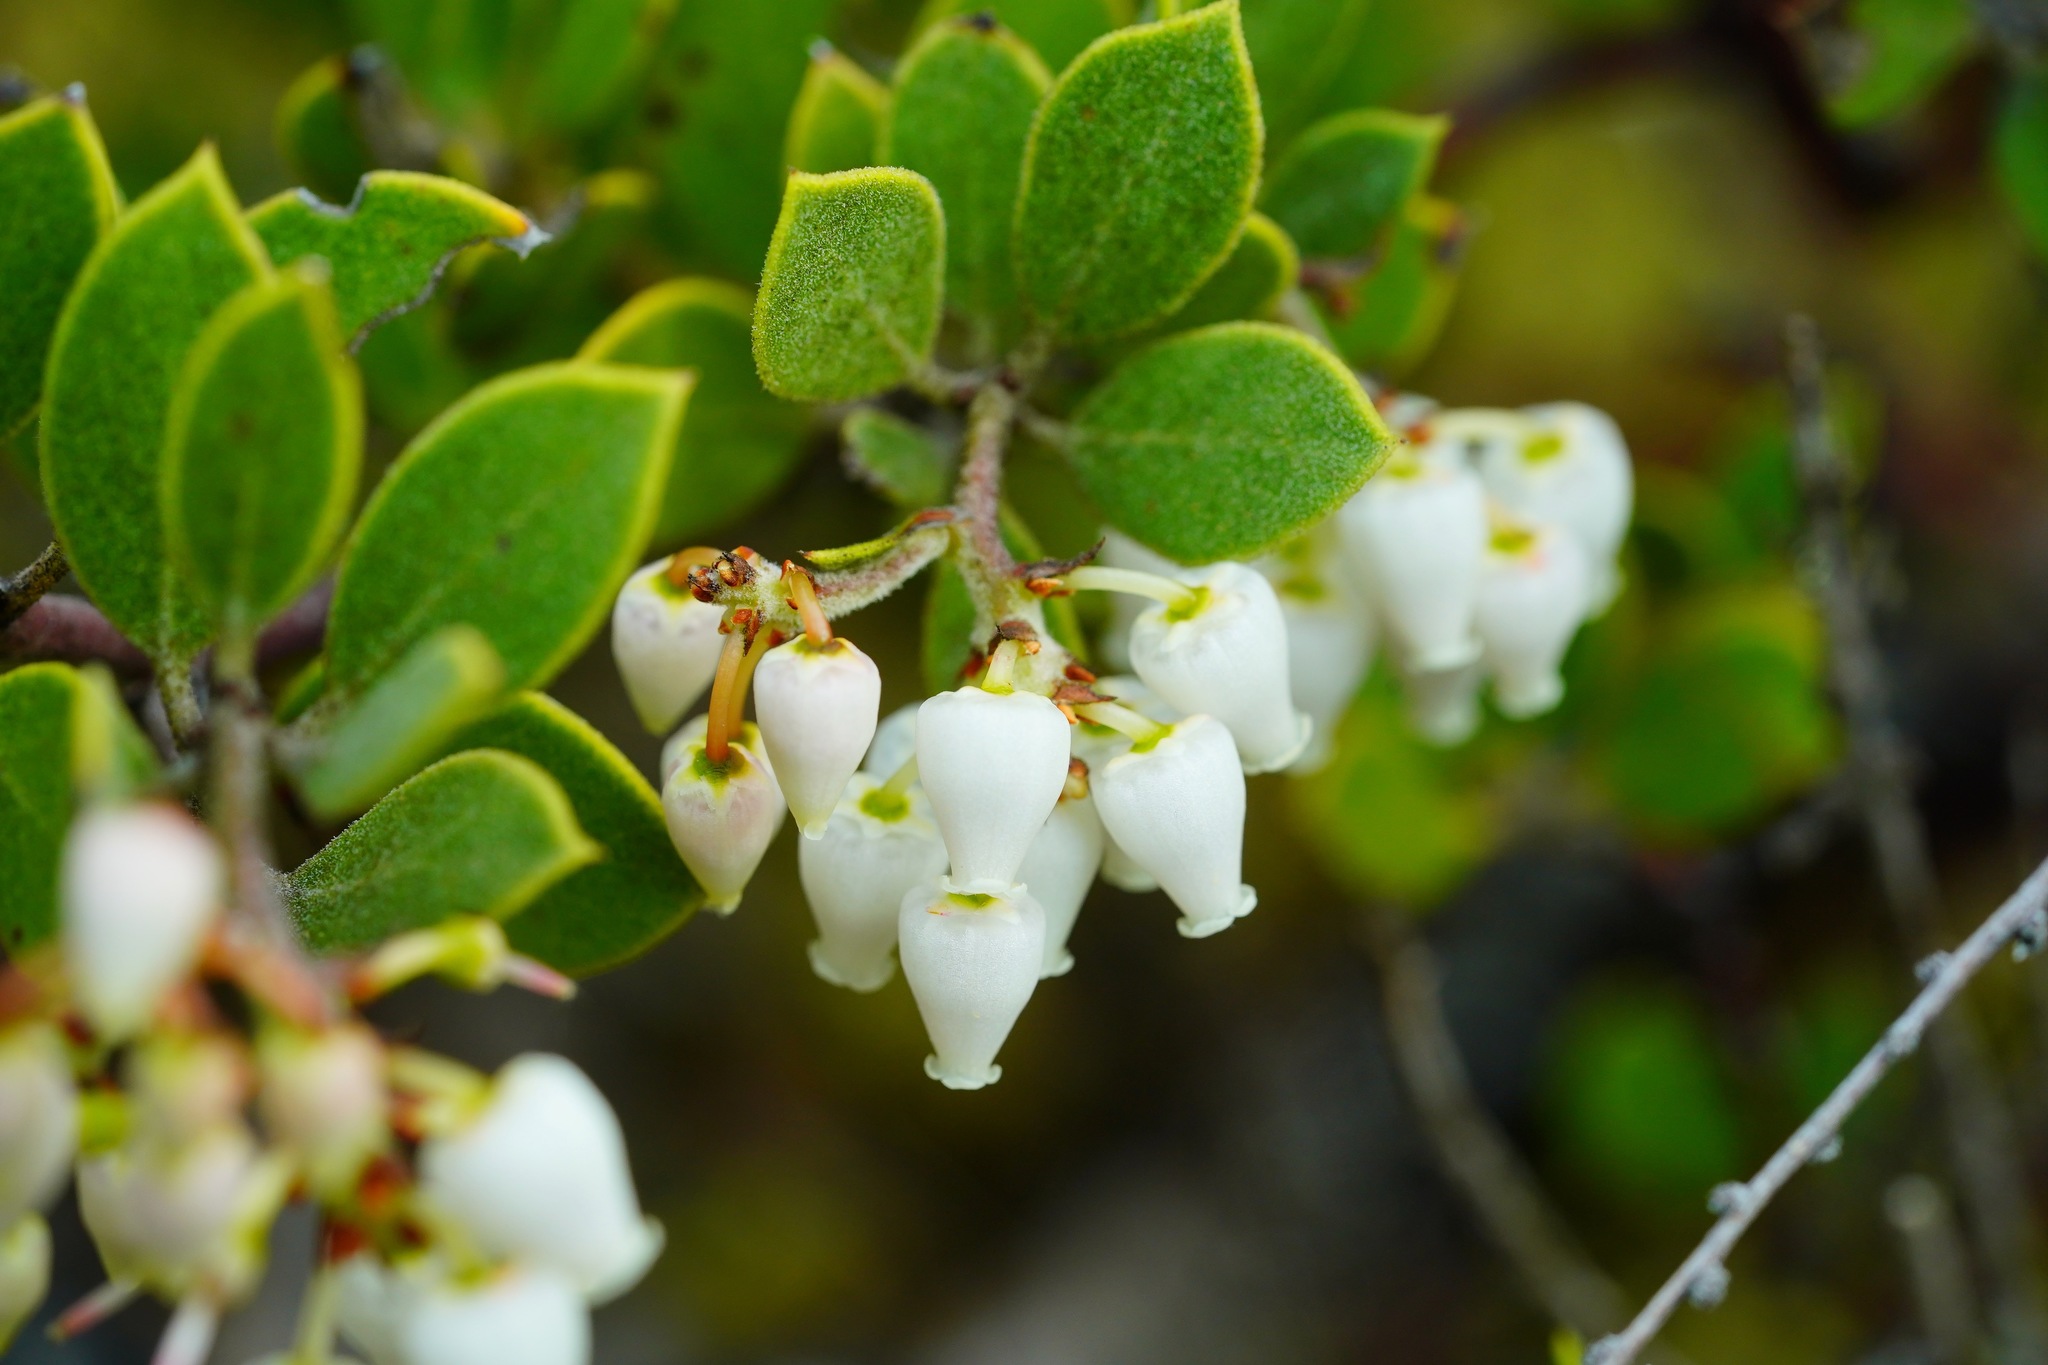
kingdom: Plantae
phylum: Tracheophyta
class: Magnoliopsida
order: Ericales
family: Ericaceae
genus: Arctostaphylos
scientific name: Arctostaphylos montana
